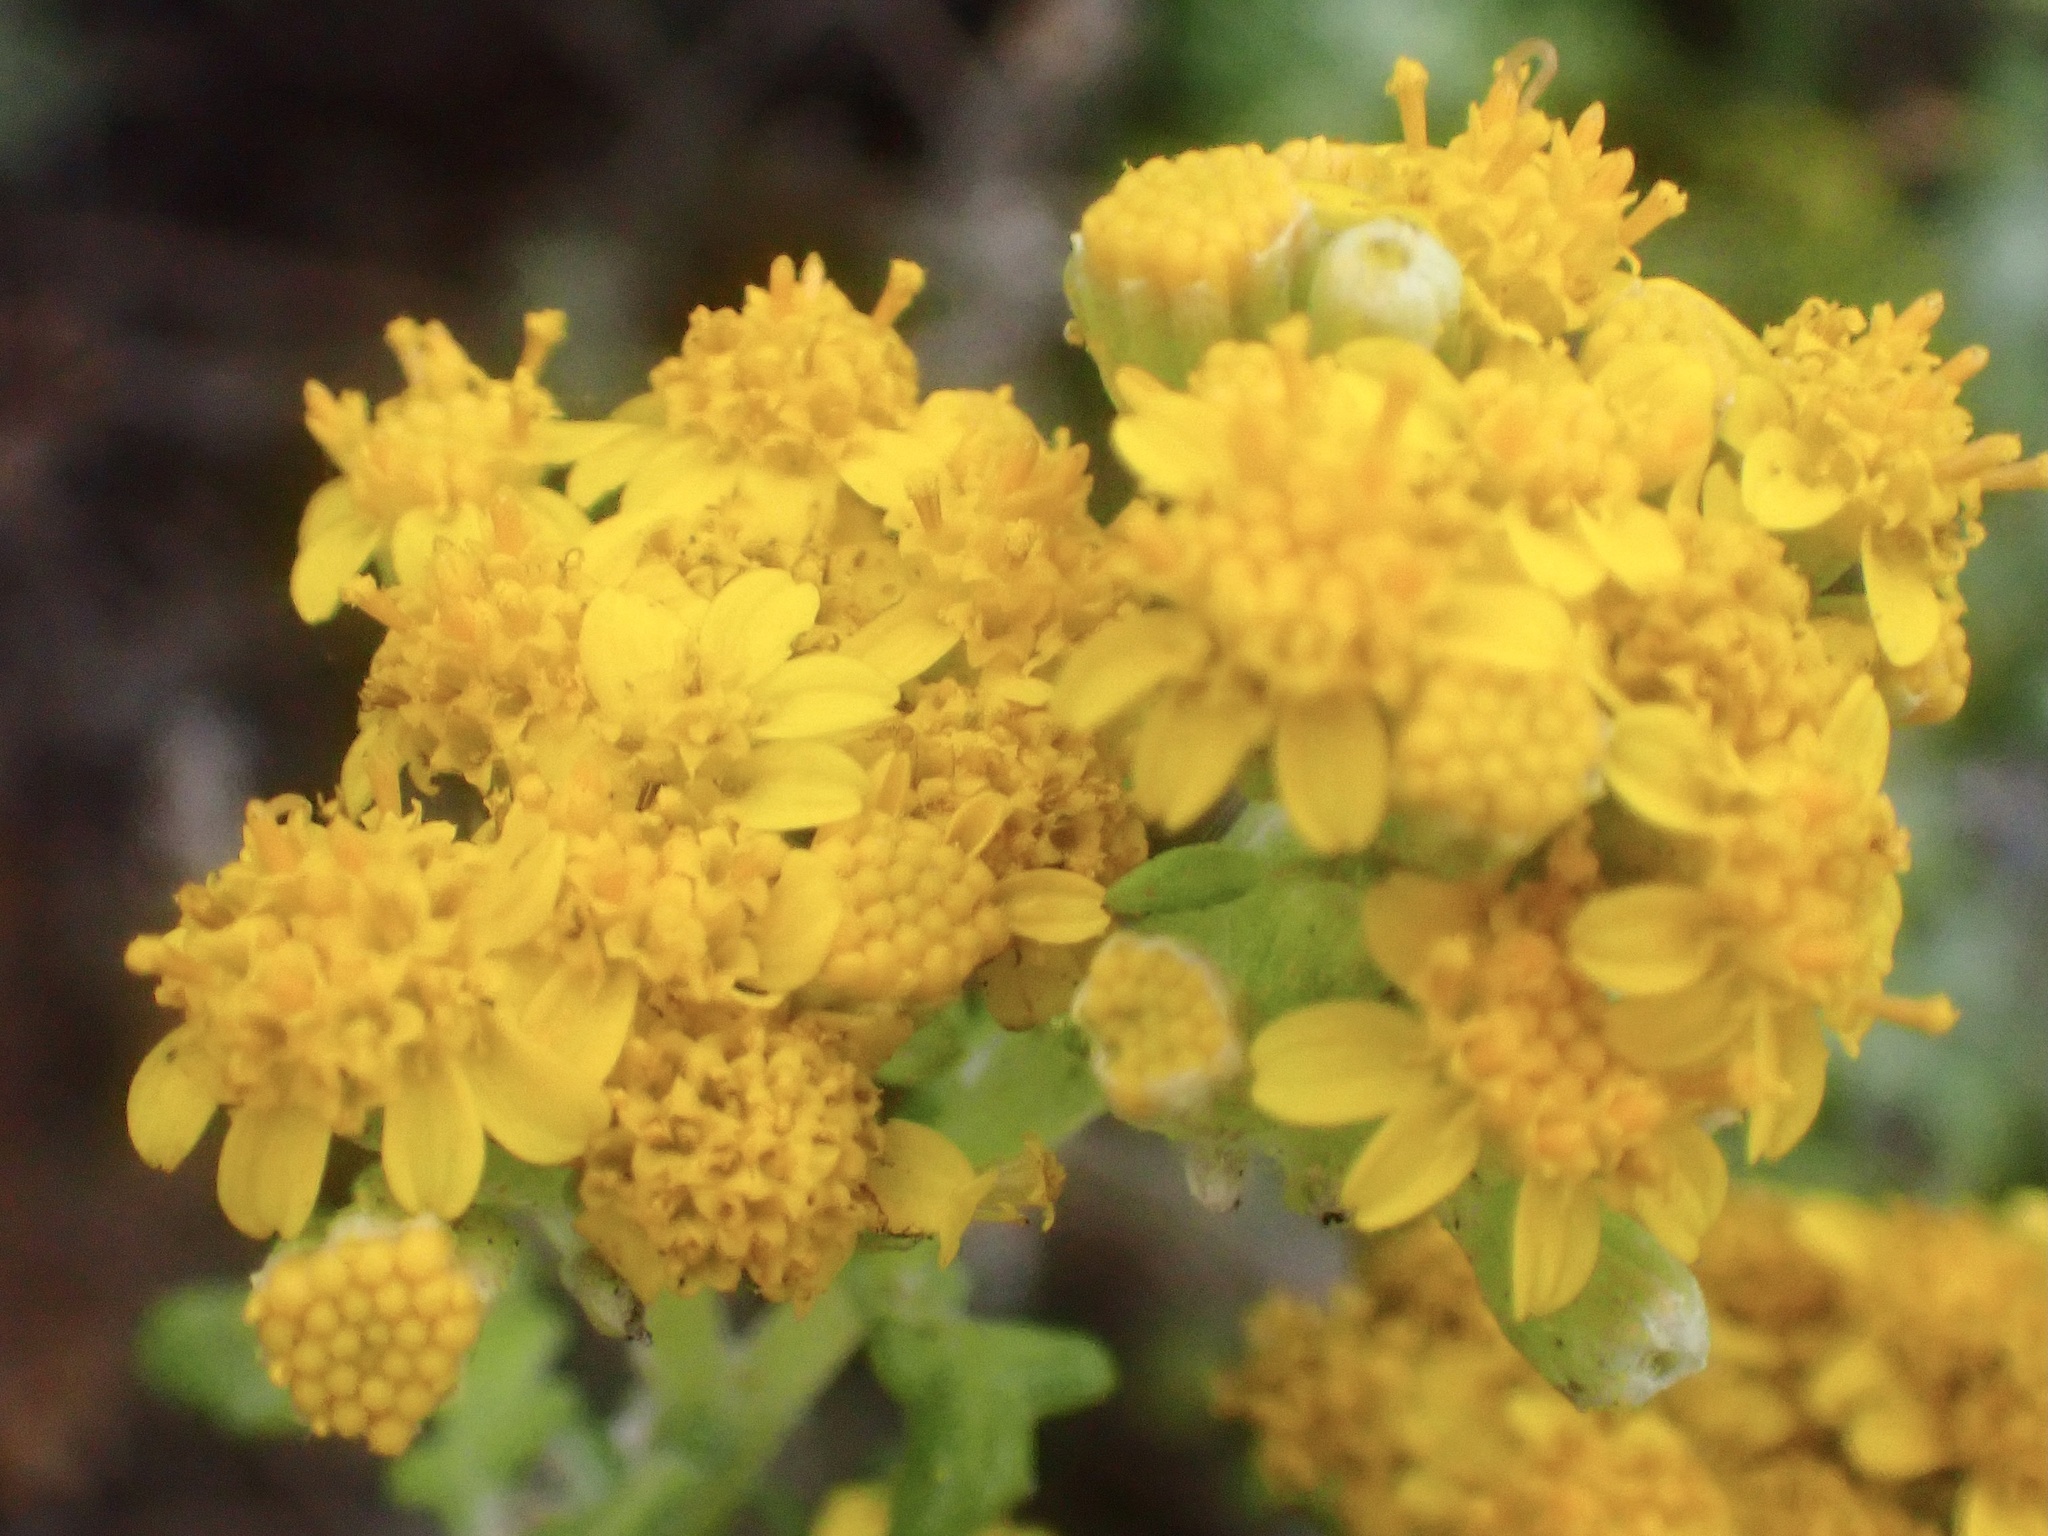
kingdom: Plantae
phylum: Tracheophyta
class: Magnoliopsida
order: Asterales
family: Asteraceae
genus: Eriophyllum
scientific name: Eriophyllum staechadifolium
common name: Lizardtail
